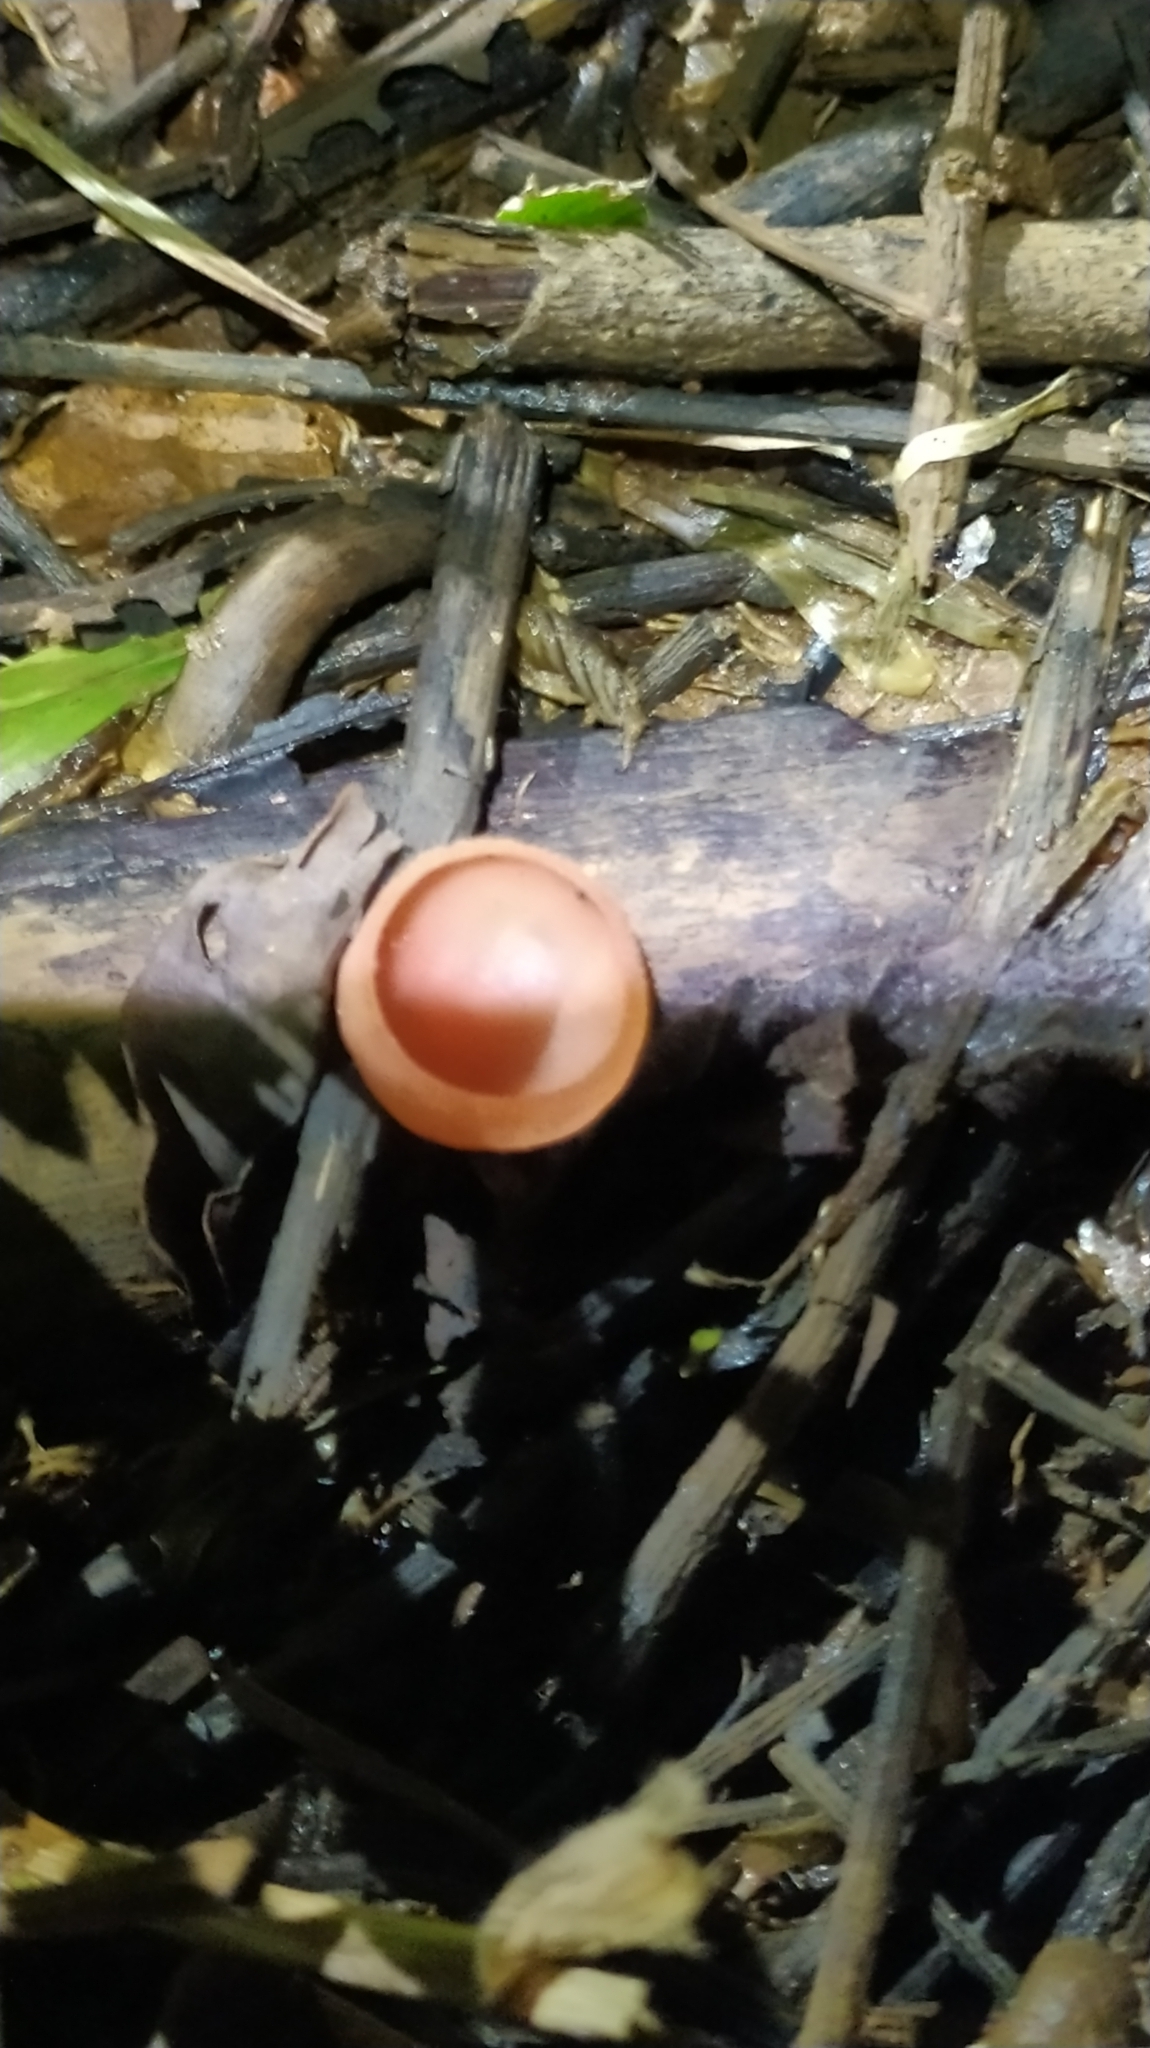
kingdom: Fungi
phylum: Ascomycota
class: Pezizomycetes
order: Pezizales
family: Sarcoscyphaceae
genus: Cookeina
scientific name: Cookeina speciosa
